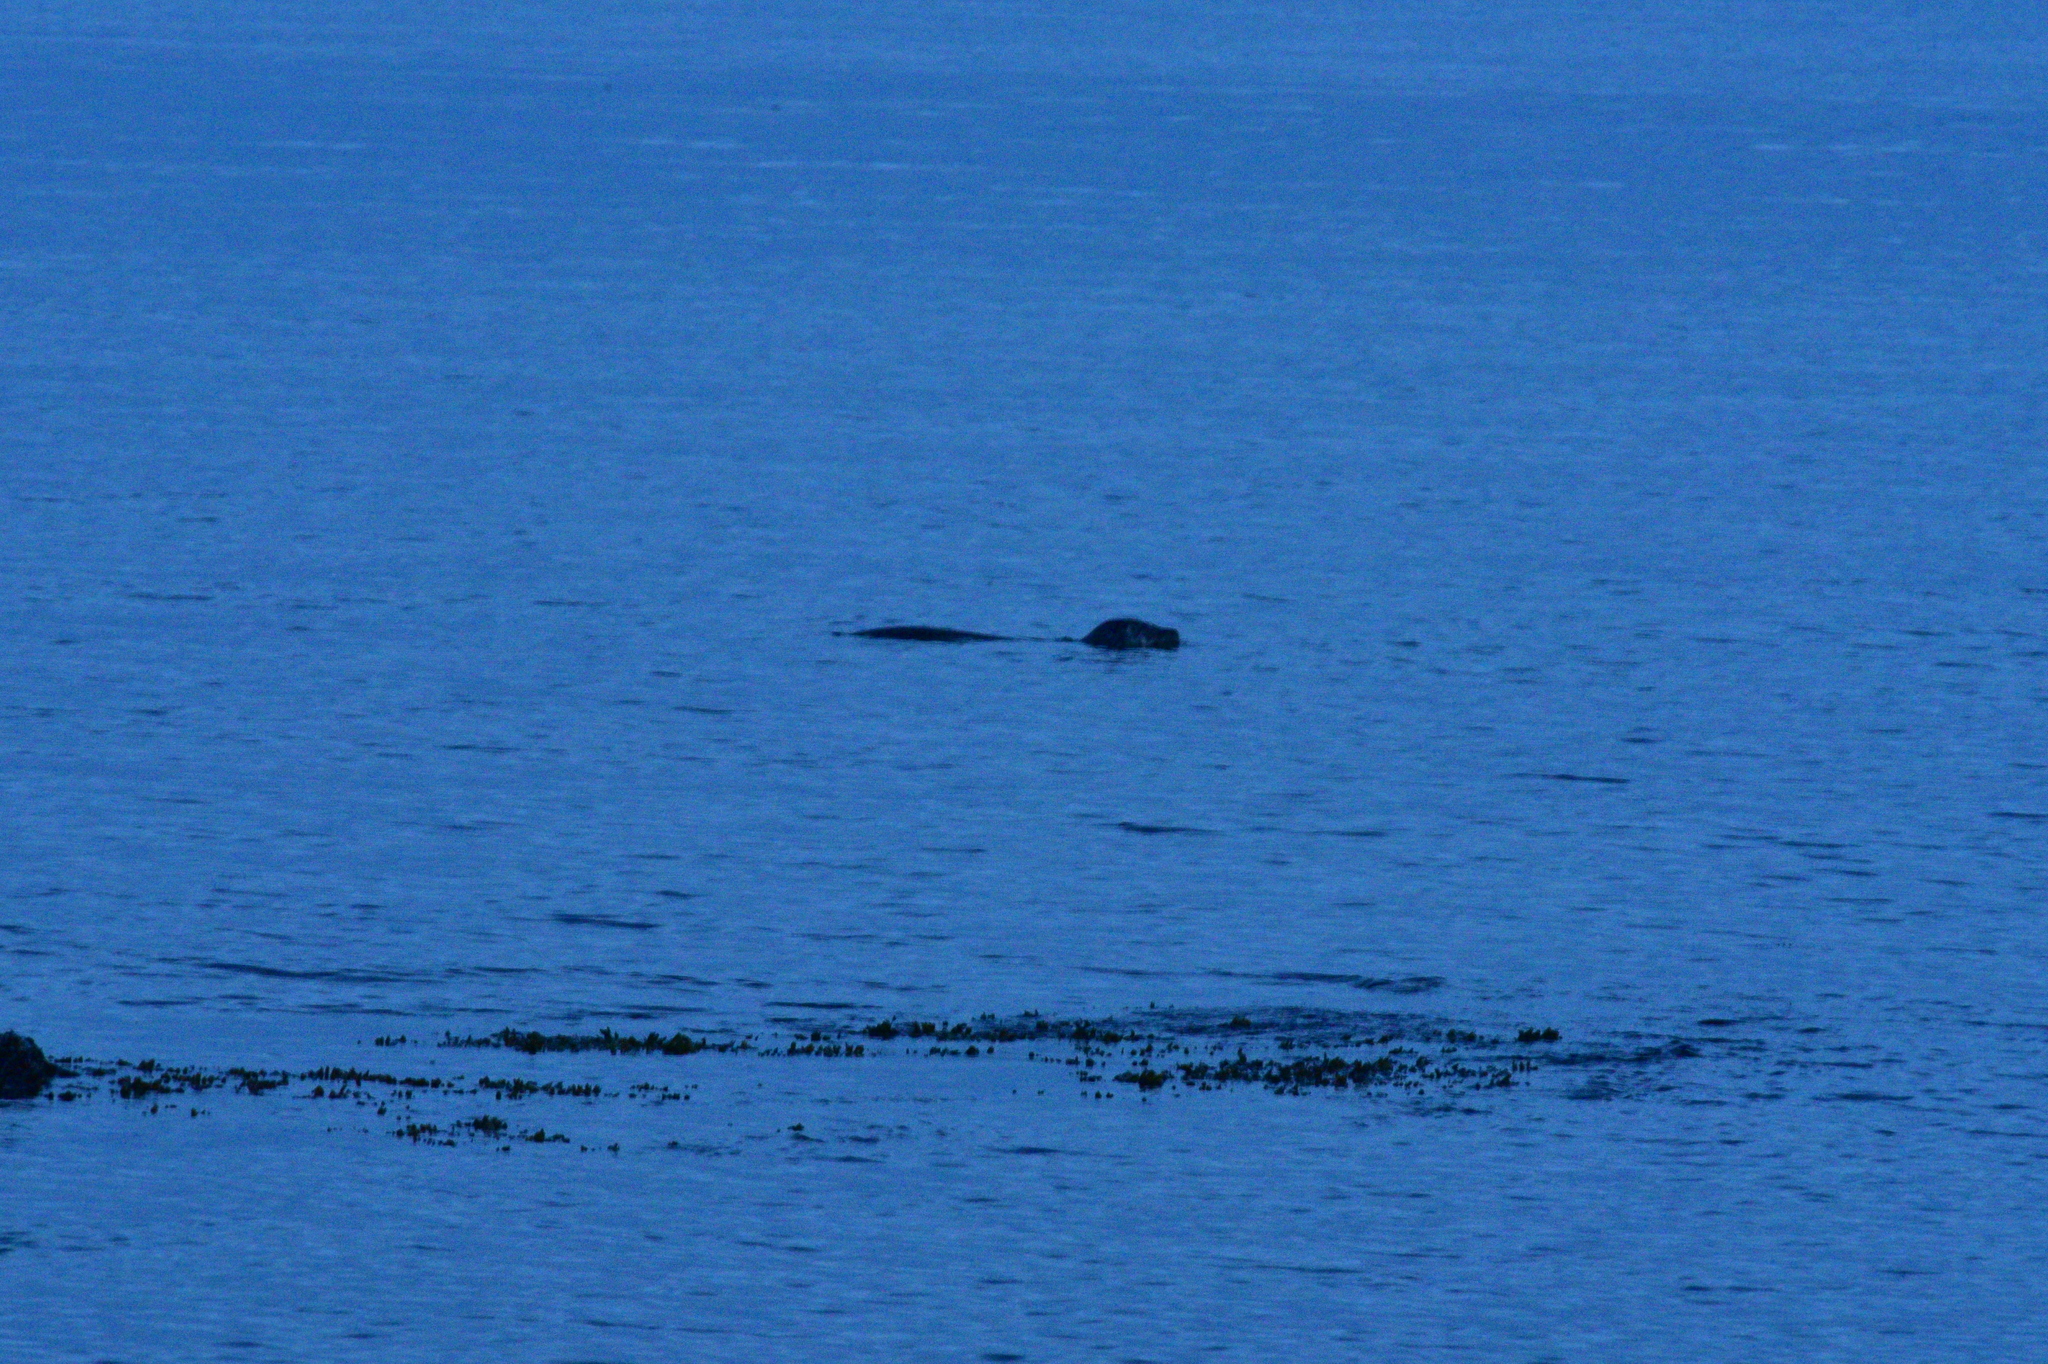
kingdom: Animalia
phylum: Chordata
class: Mammalia
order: Carnivora
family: Phocidae
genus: Phoca
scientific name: Phoca vitulina
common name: Harbor seal
